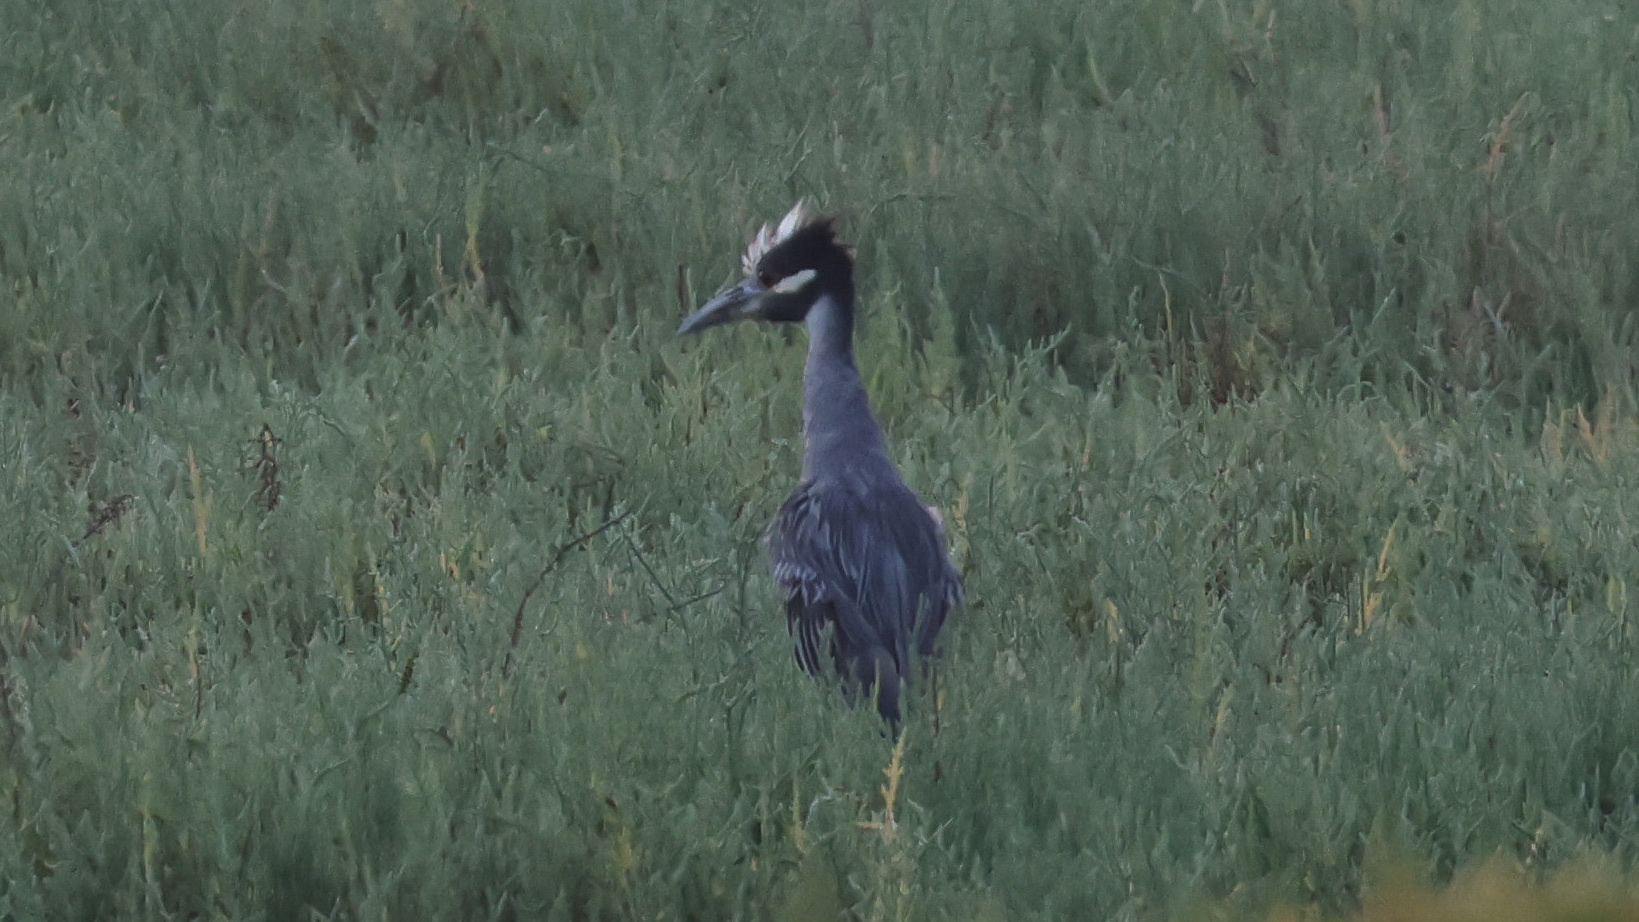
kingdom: Animalia
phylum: Chordata
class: Aves
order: Pelecaniformes
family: Ardeidae
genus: Nyctanassa
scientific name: Nyctanassa violacea
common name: Yellow-crowned night heron
